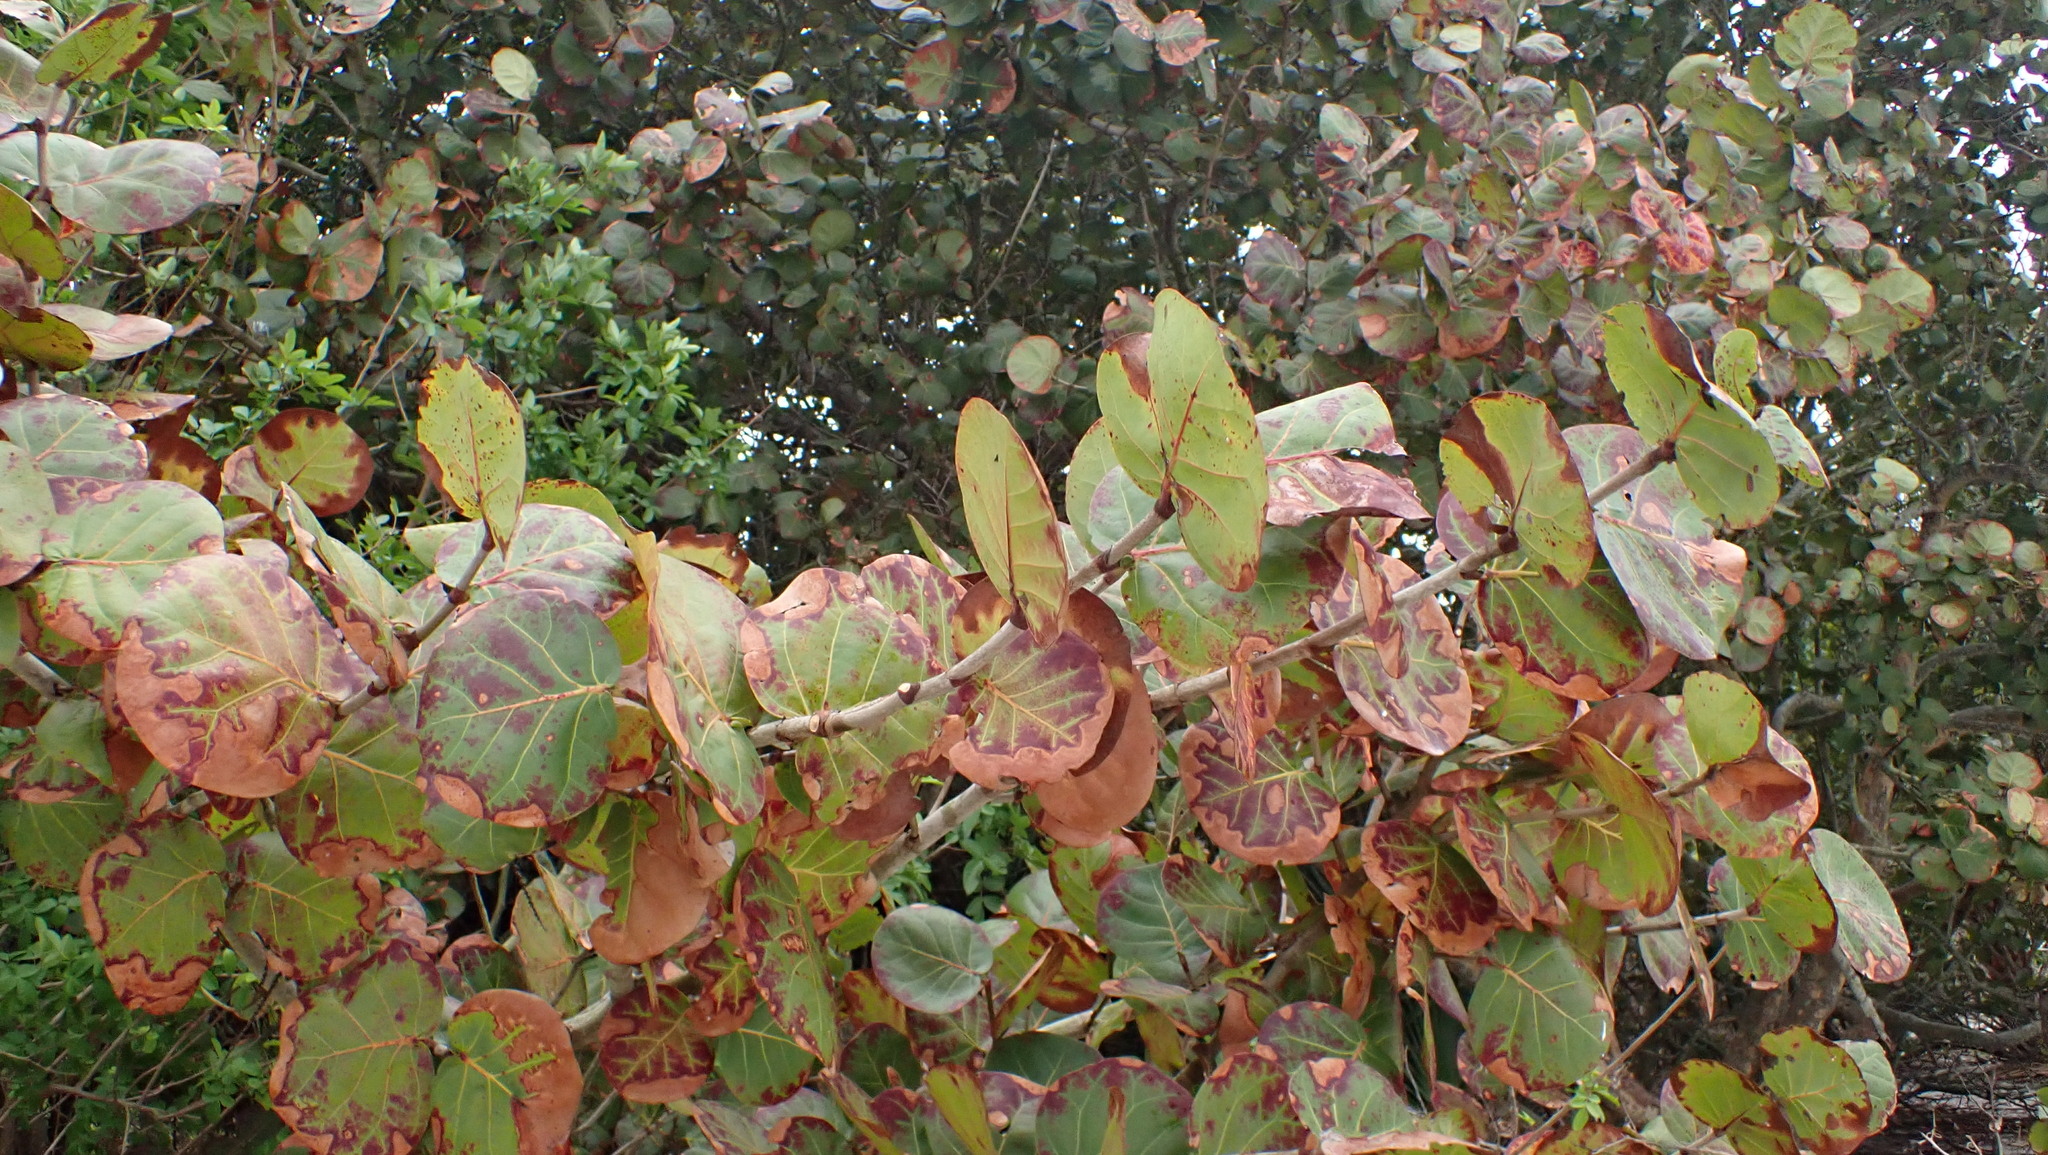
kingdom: Plantae
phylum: Tracheophyta
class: Magnoliopsida
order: Caryophyllales
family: Polygonaceae
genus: Coccoloba
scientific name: Coccoloba uvifera
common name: Seagrape
